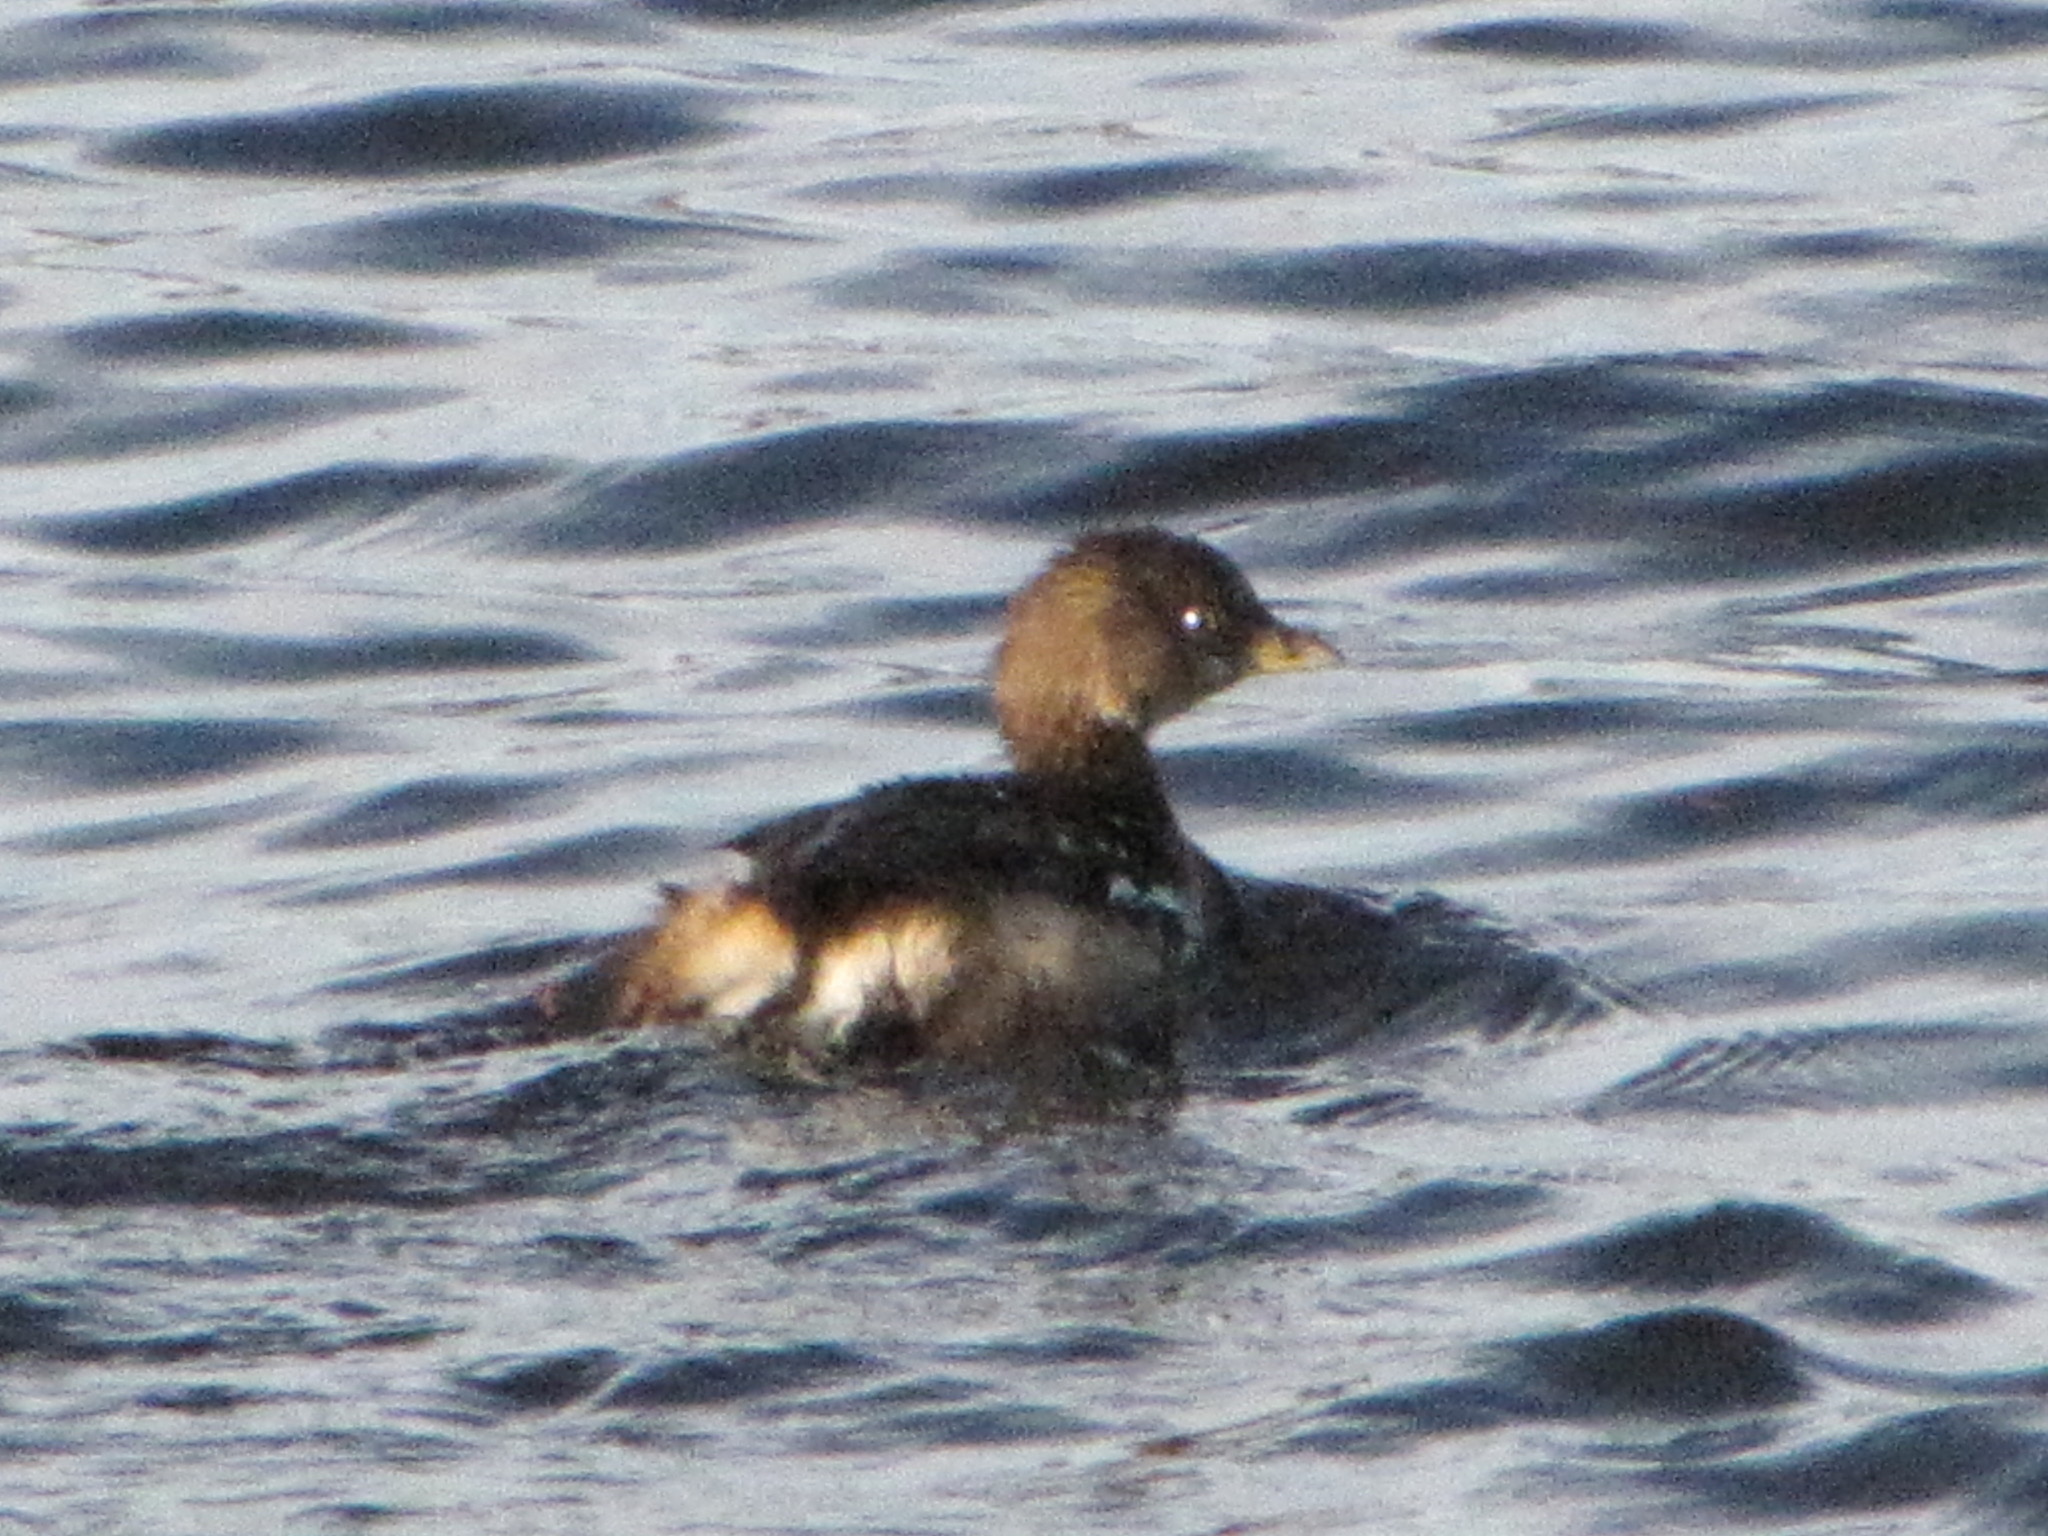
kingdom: Animalia
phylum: Chordata
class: Aves
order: Podicipediformes
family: Podicipedidae
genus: Podilymbus
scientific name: Podilymbus podiceps
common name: Pied-billed grebe
